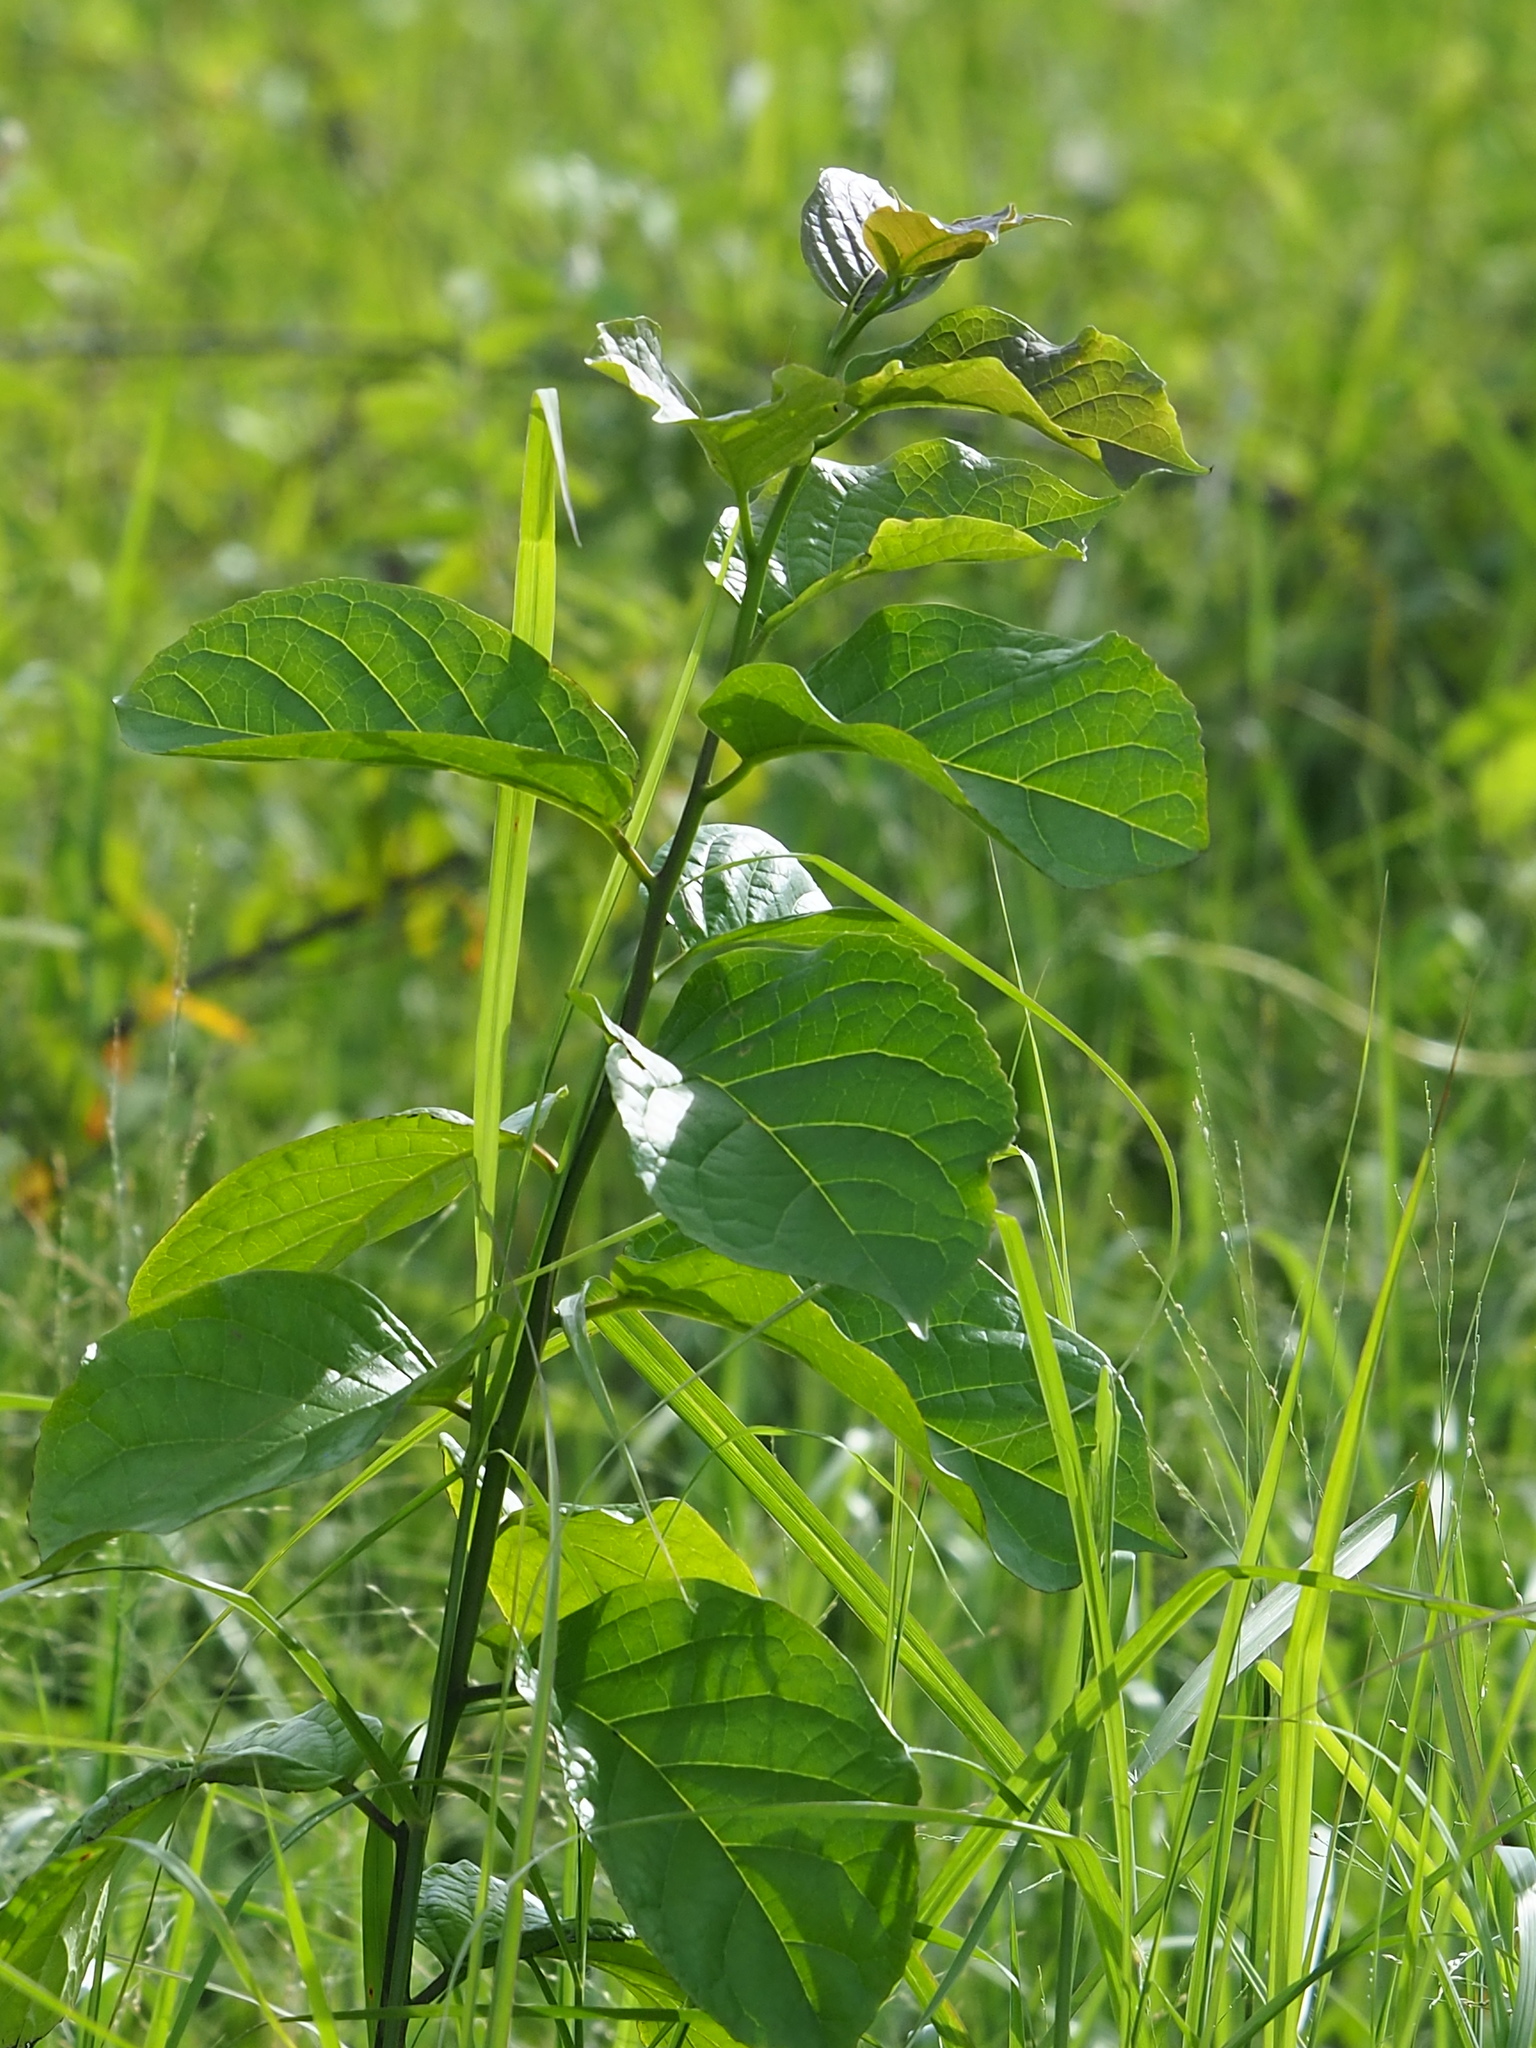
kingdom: Plantae
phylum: Tracheophyta
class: Magnoliopsida
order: Boraginales
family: Ehretiaceae
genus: Ehretia
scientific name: Ehretia resinosa
